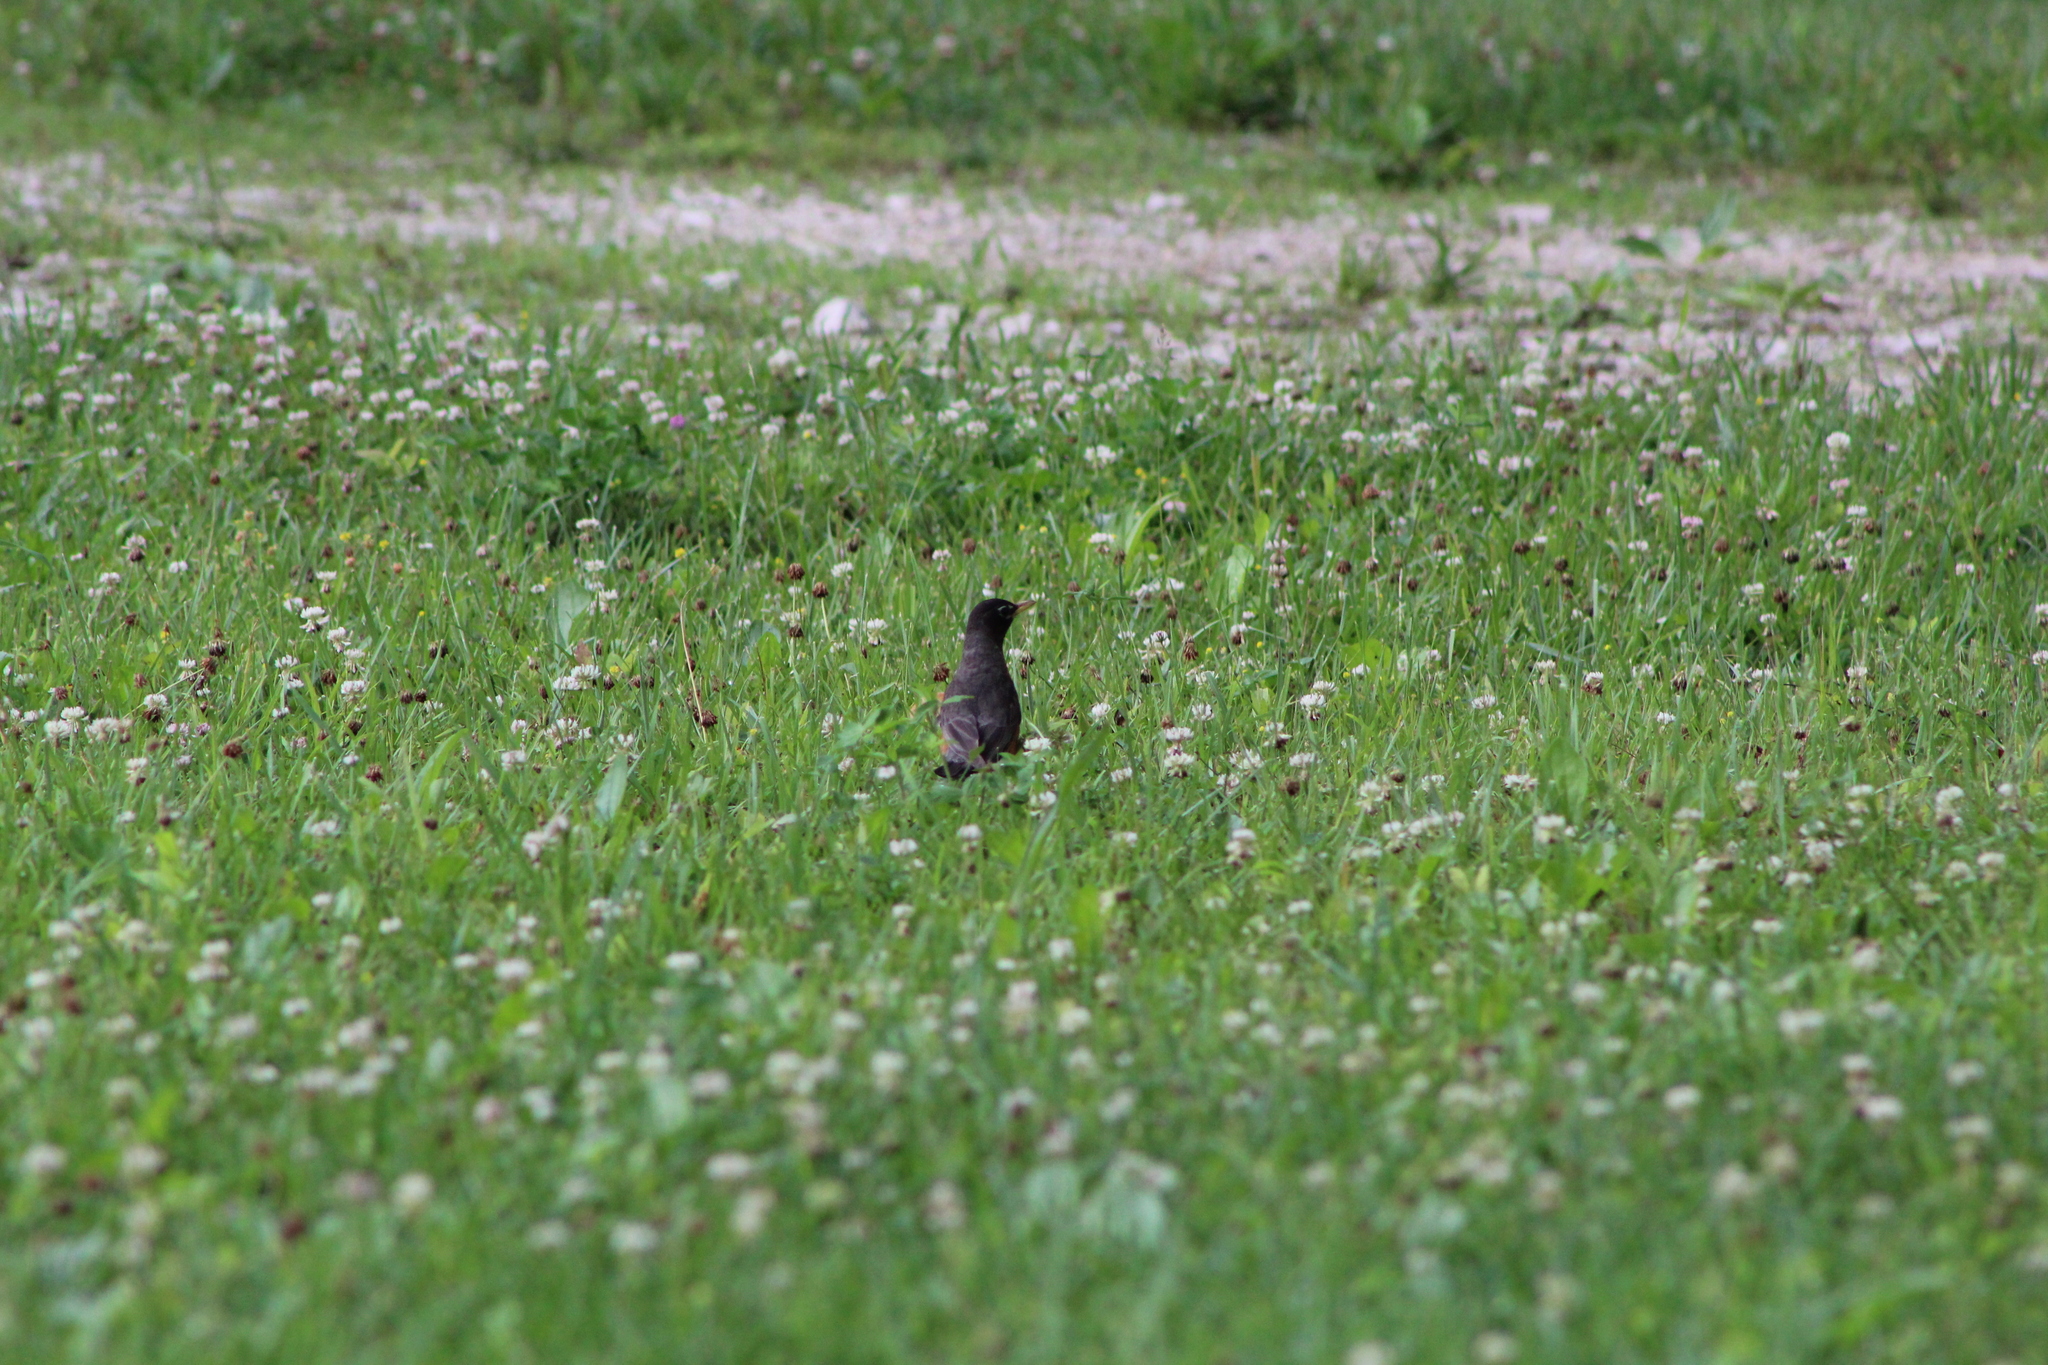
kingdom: Animalia
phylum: Chordata
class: Aves
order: Passeriformes
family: Turdidae
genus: Turdus
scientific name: Turdus migratorius
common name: American robin
